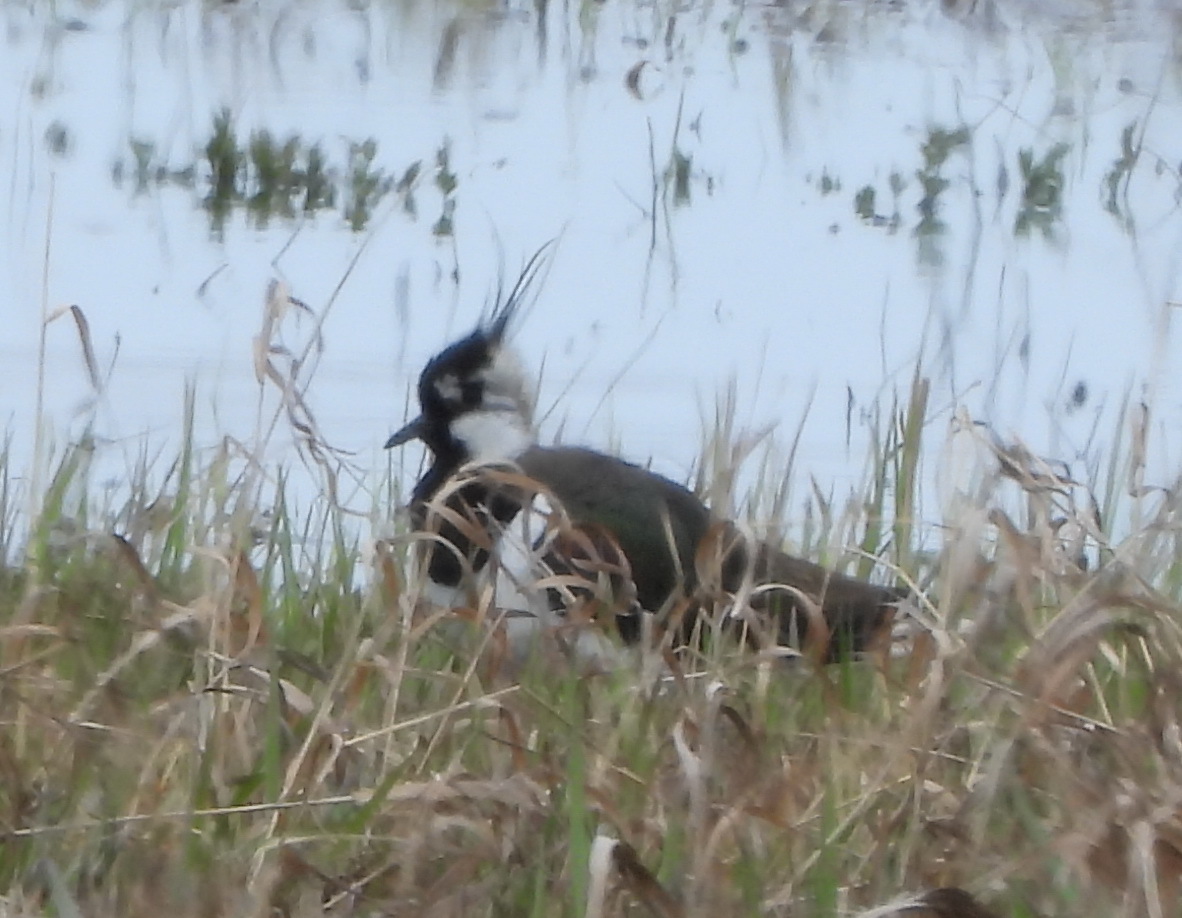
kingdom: Animalia
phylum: Chordata
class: Aves
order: Charadriiformes
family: Charadriidae
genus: Vanellus
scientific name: Vanellus vanellus
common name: Northern lapwing
